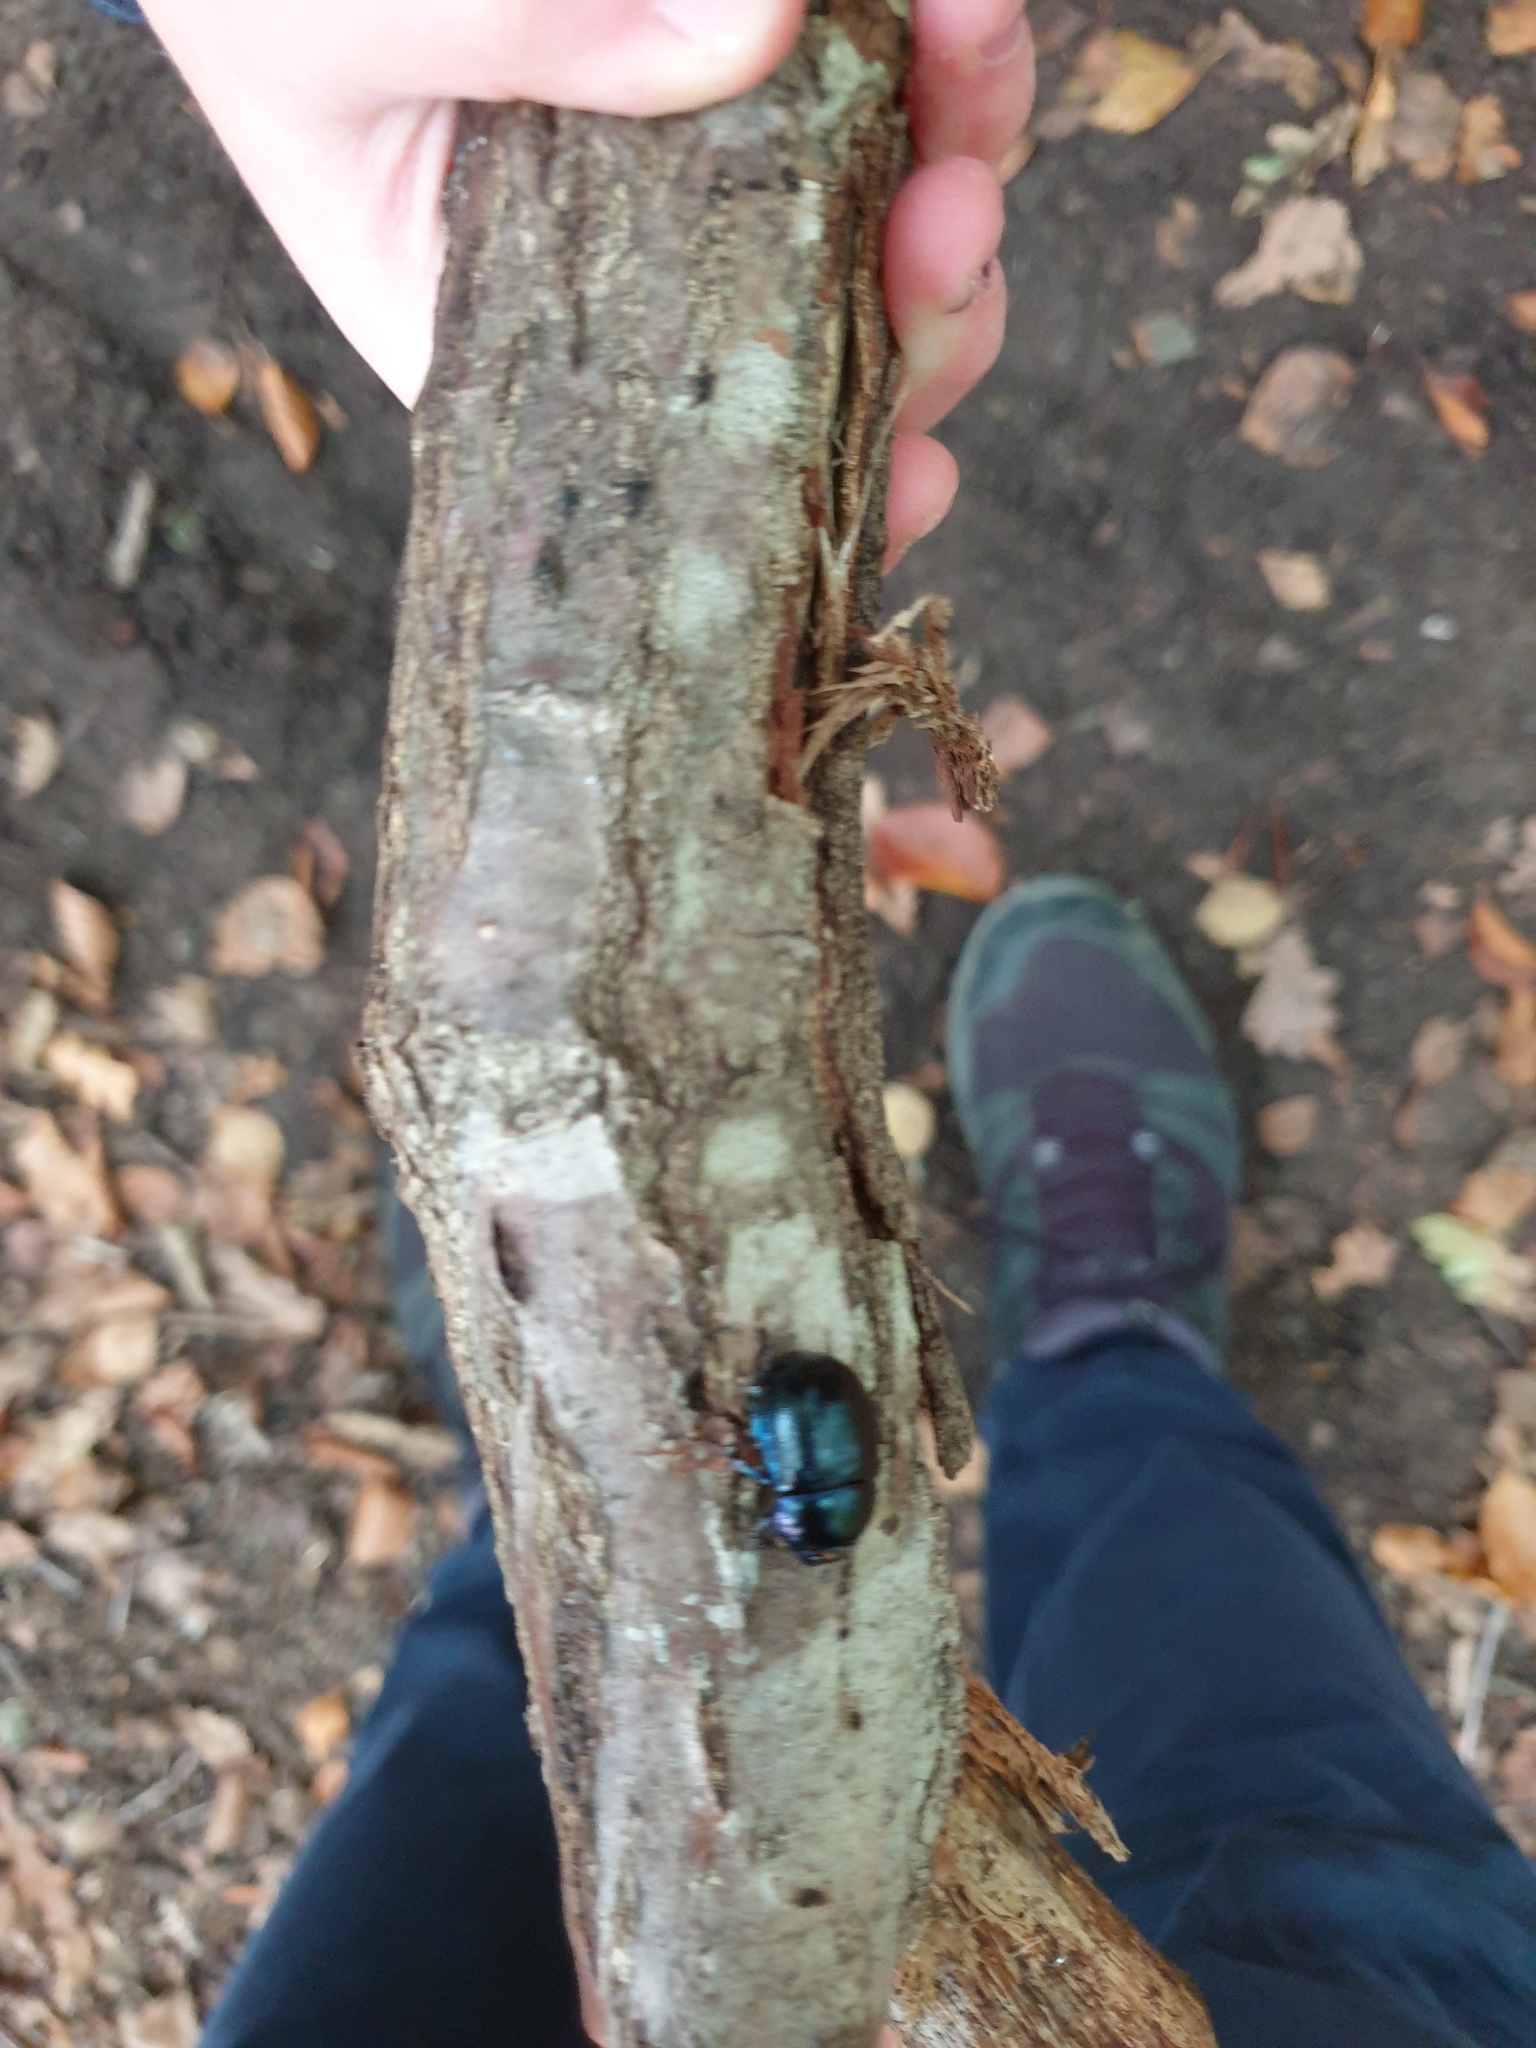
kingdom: Animalia
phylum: Arthropoda
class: Insecta
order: Coleoptera
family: Geotrupidae
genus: Anoplotrupes
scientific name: Anoplotrupes stercorosus
